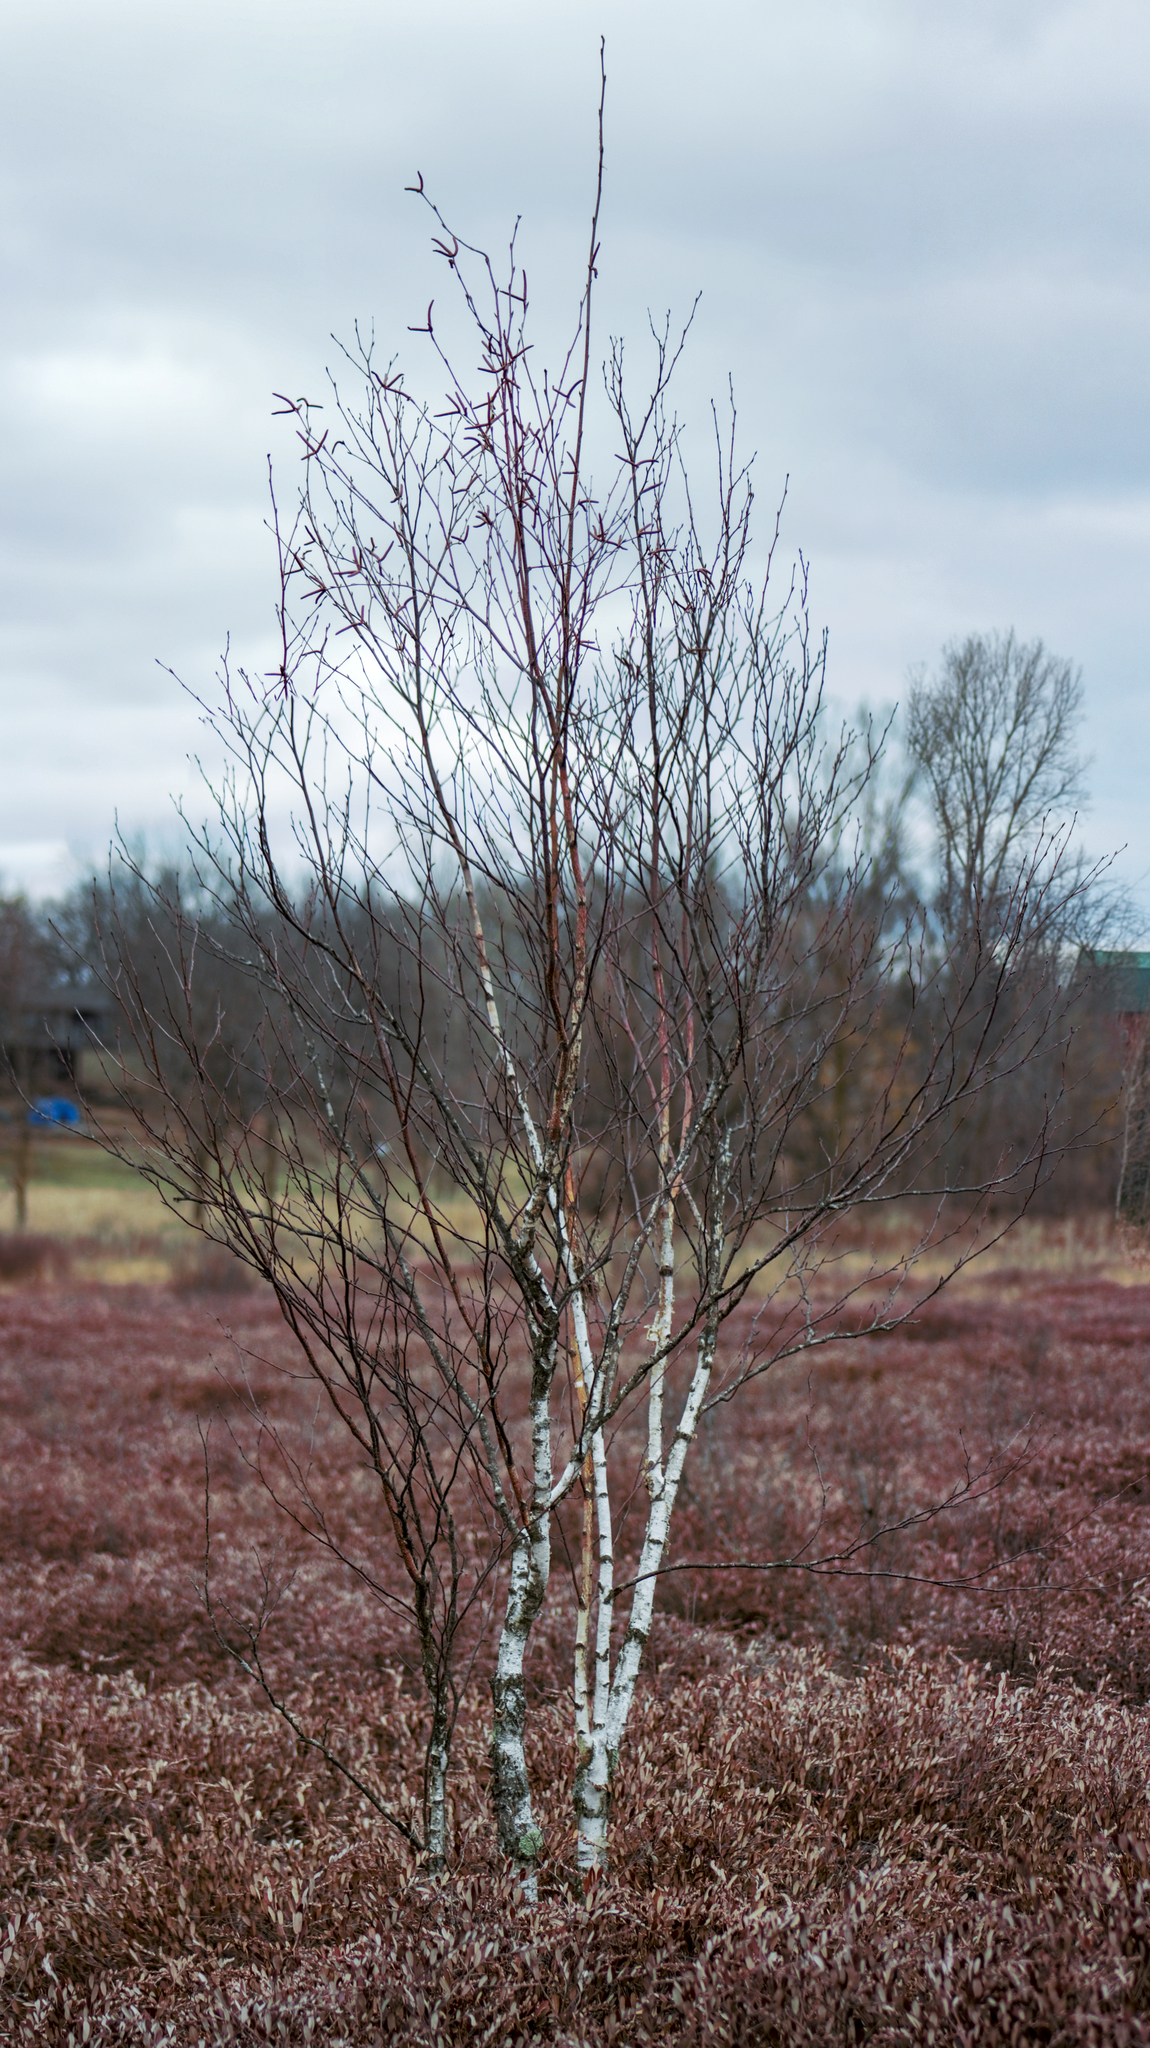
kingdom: Plantae
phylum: Tracheophyta
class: Magnoliopsida
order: Fagales
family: Betulaceae
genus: Betula
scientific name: Betula papyrifera
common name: Paper birch
